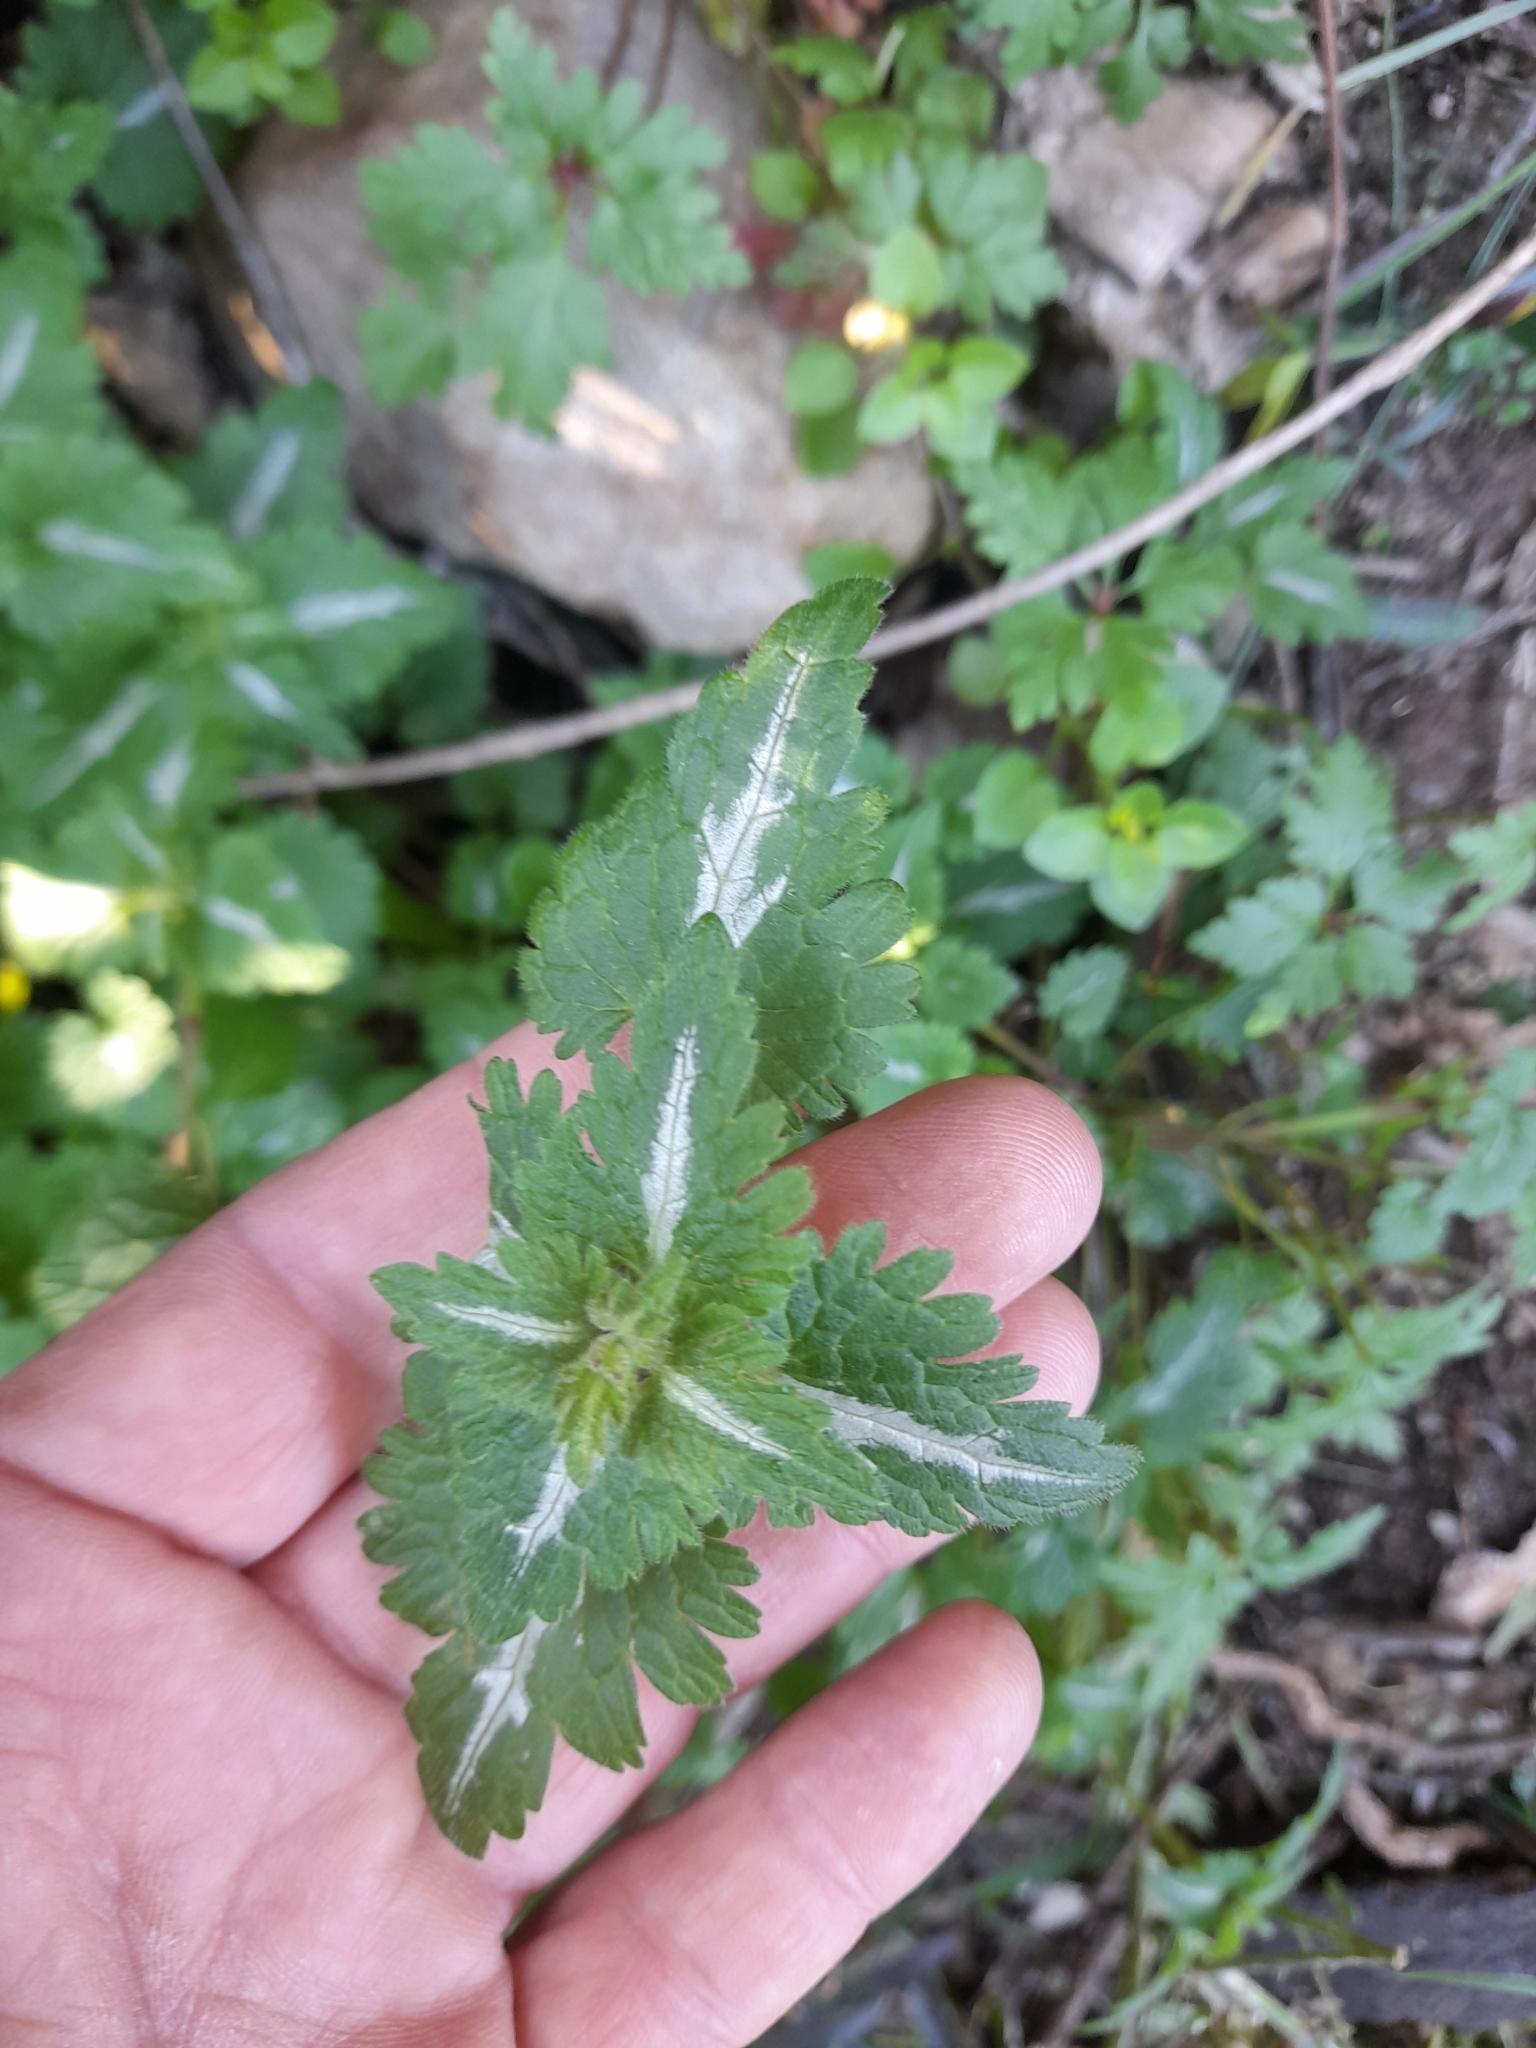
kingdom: Plantae
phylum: Tracheophyta
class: Magnoliopsida
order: Lamiales
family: Lamiaceae
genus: Lamium
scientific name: Lamium bifidum
